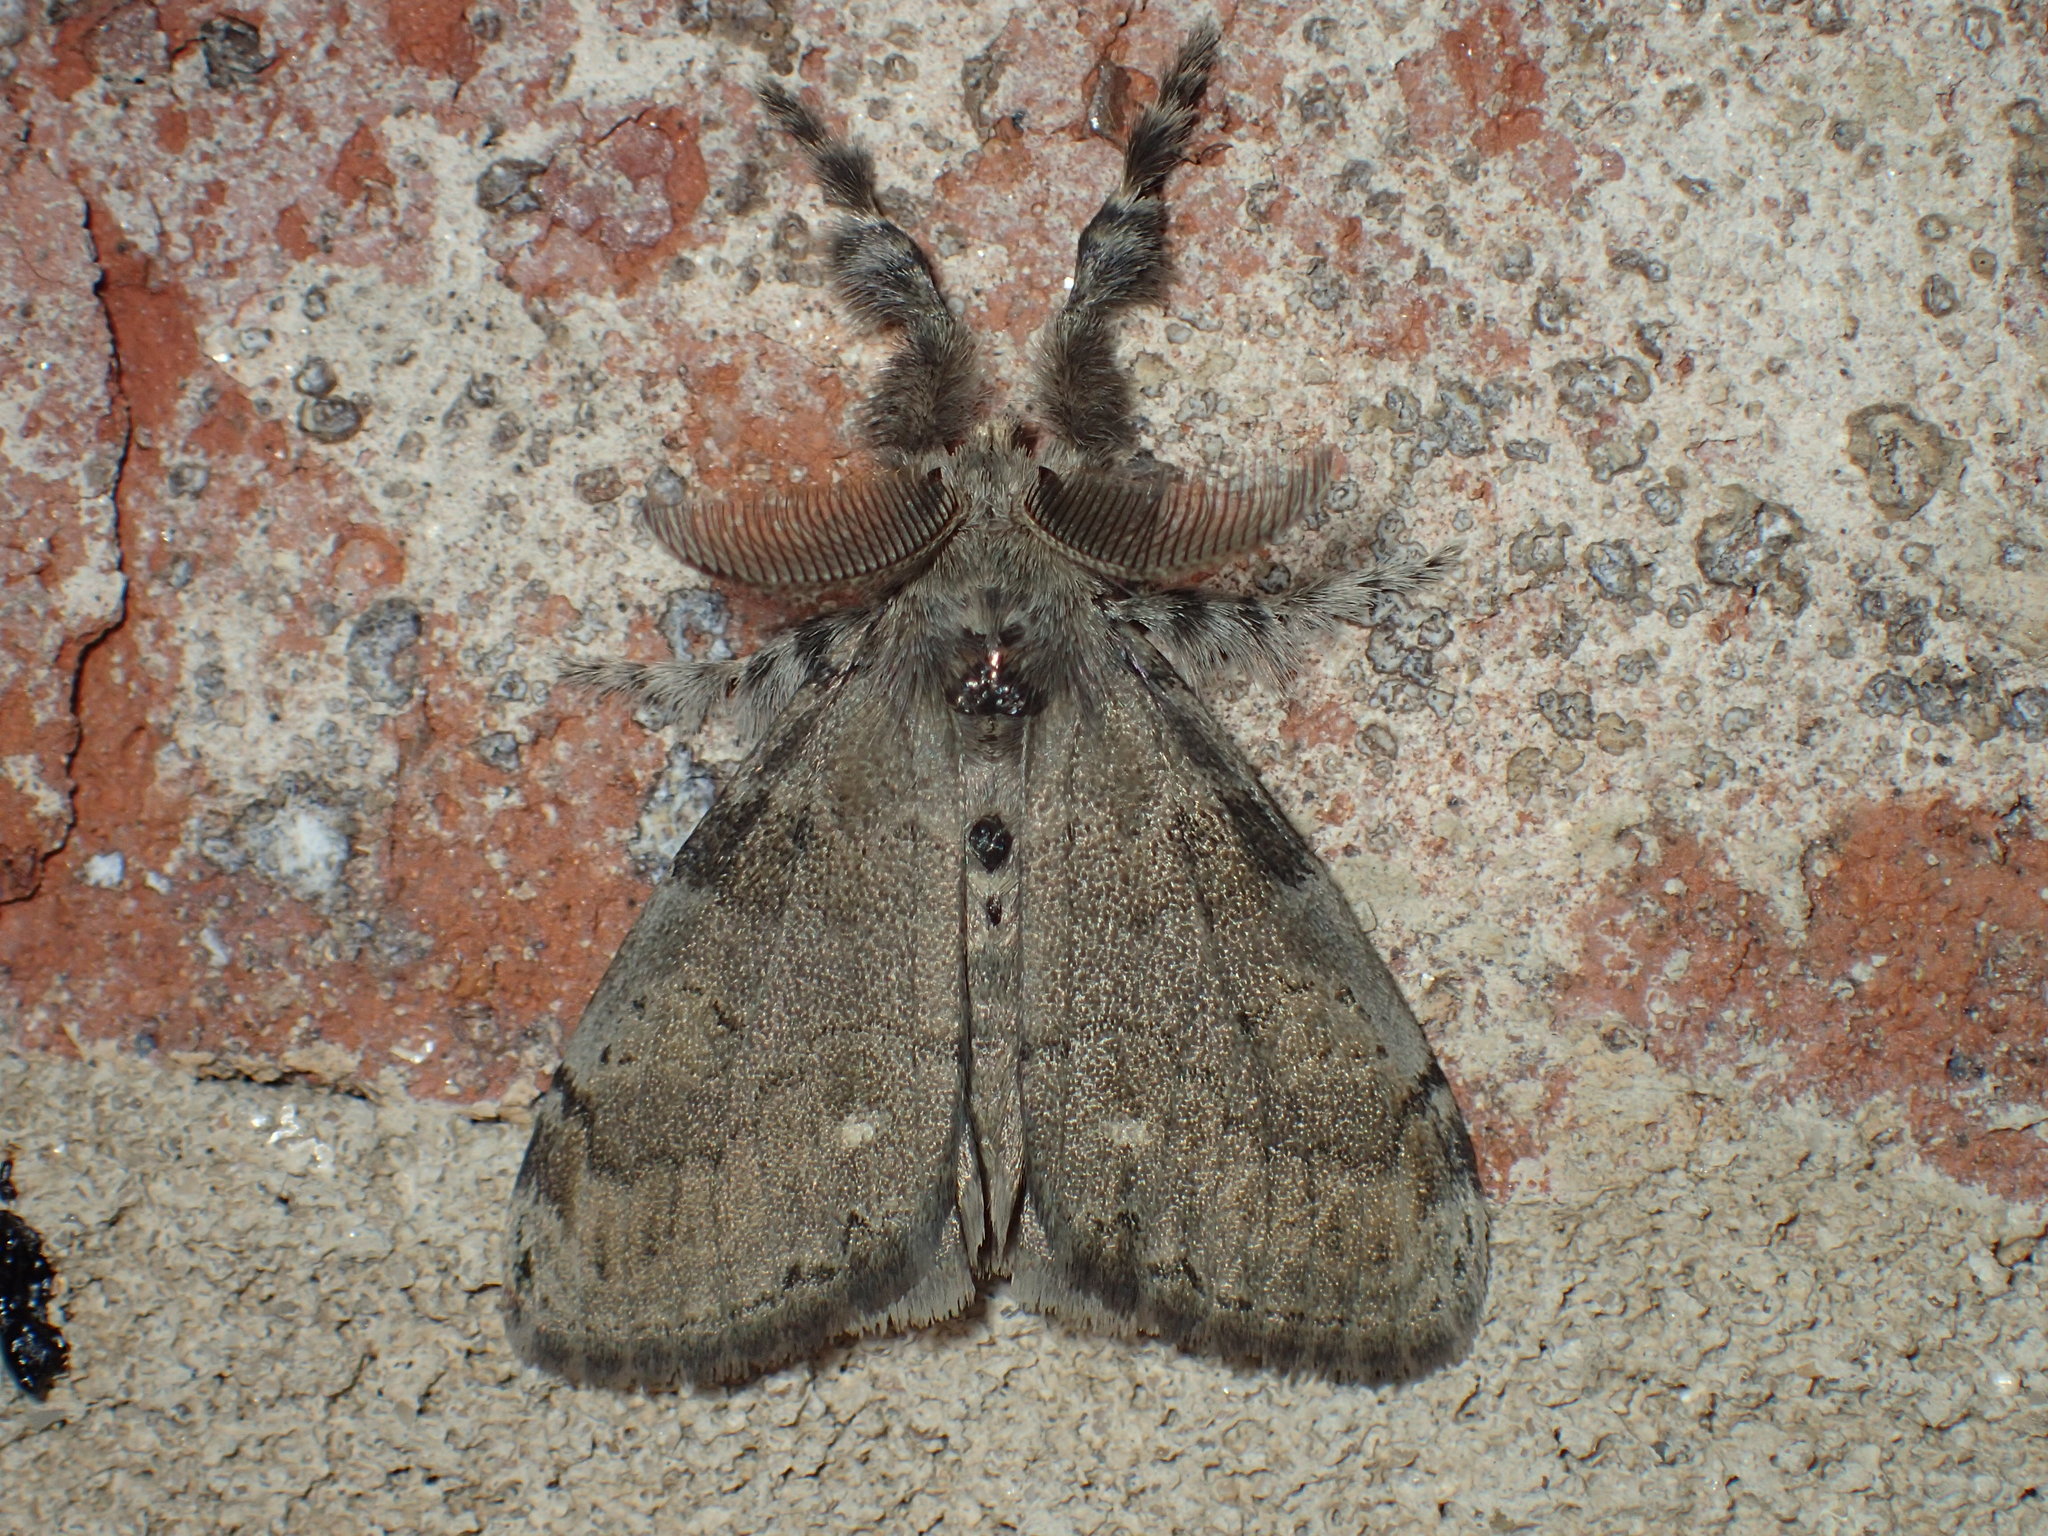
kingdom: Animalia
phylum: Arthropoda
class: Insecta
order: Lepidoptera
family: Erebidae
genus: Orgyia
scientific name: Orgyia leucostigma
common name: White-marked tussock moth
